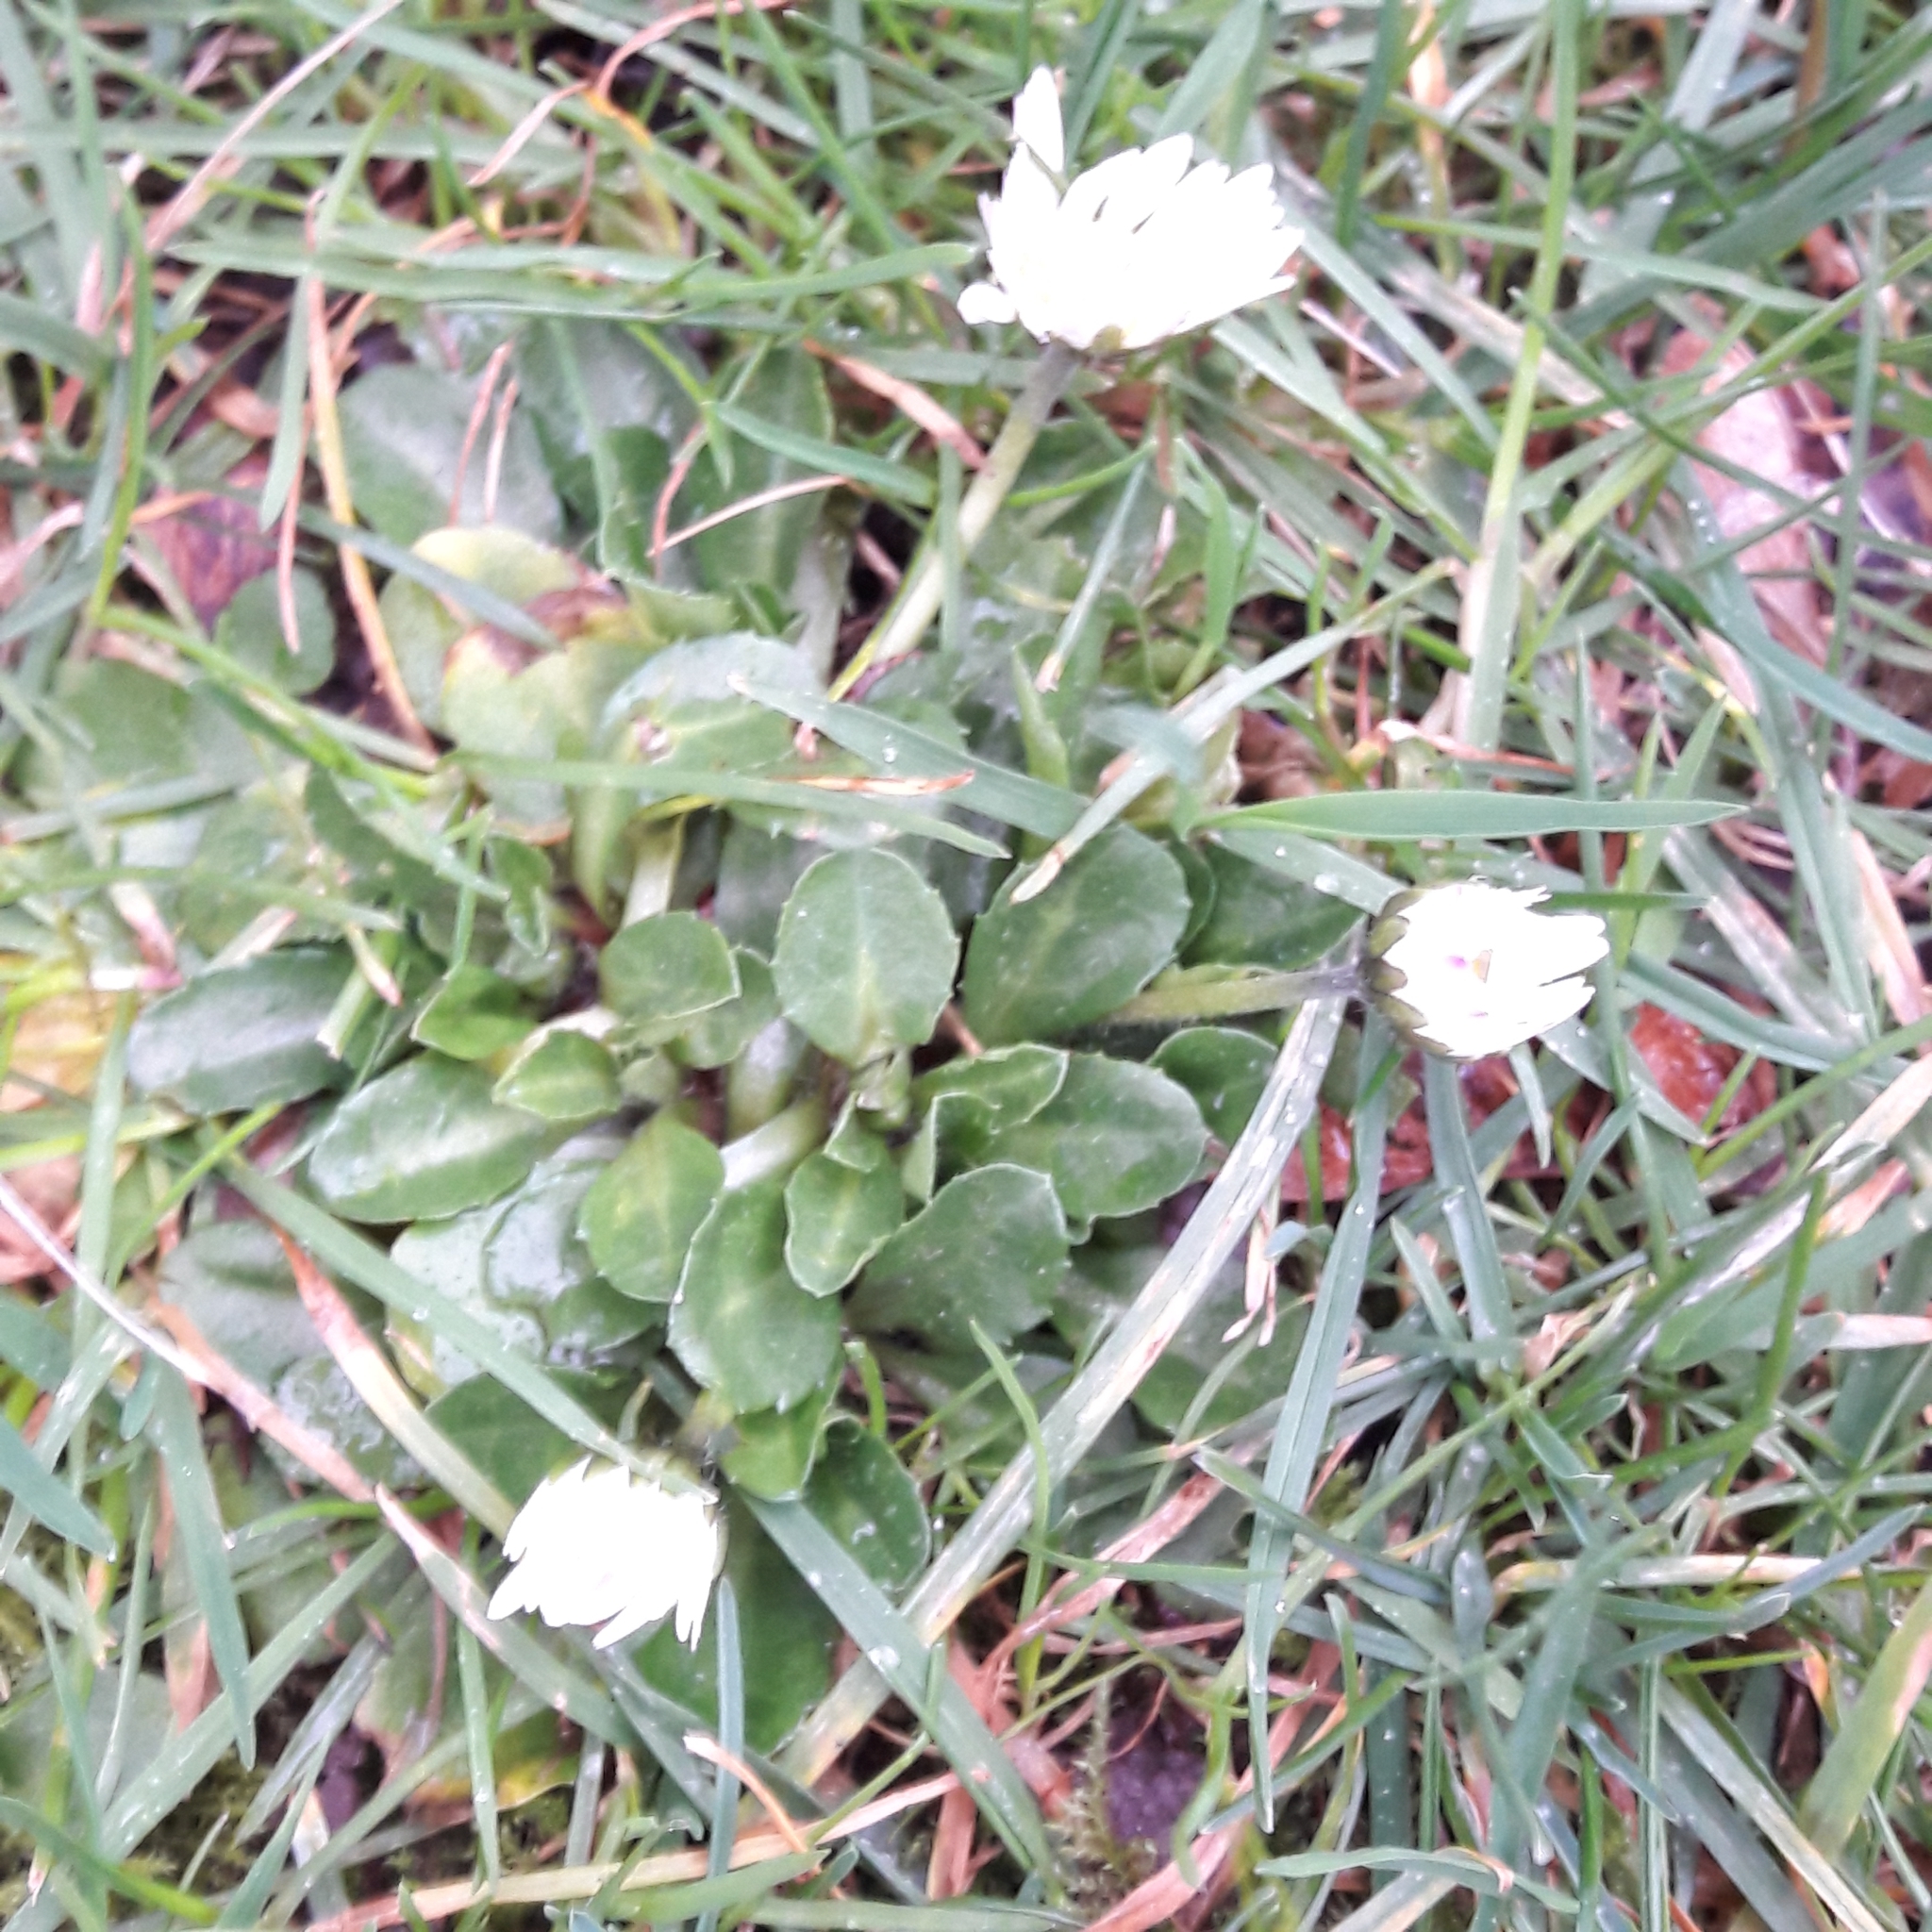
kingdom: Plantae
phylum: Tracheophyta
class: Magnoliopsida
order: Asterales
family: Asteraceae
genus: Bellis
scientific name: Bellis perennis
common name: Lawndaisy
